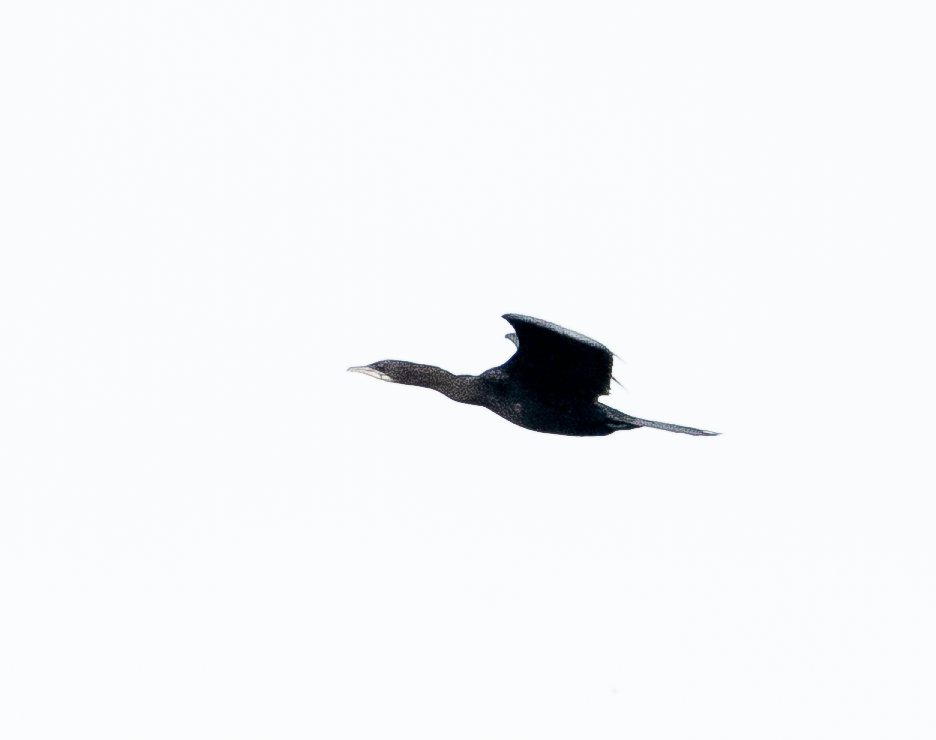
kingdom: Animalia
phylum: Chordata
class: Aves
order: Suliformes
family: Phalacrocoracidae
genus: Microcarbo
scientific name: Microcarbo pygmaeus
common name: Pygmy cormorant
